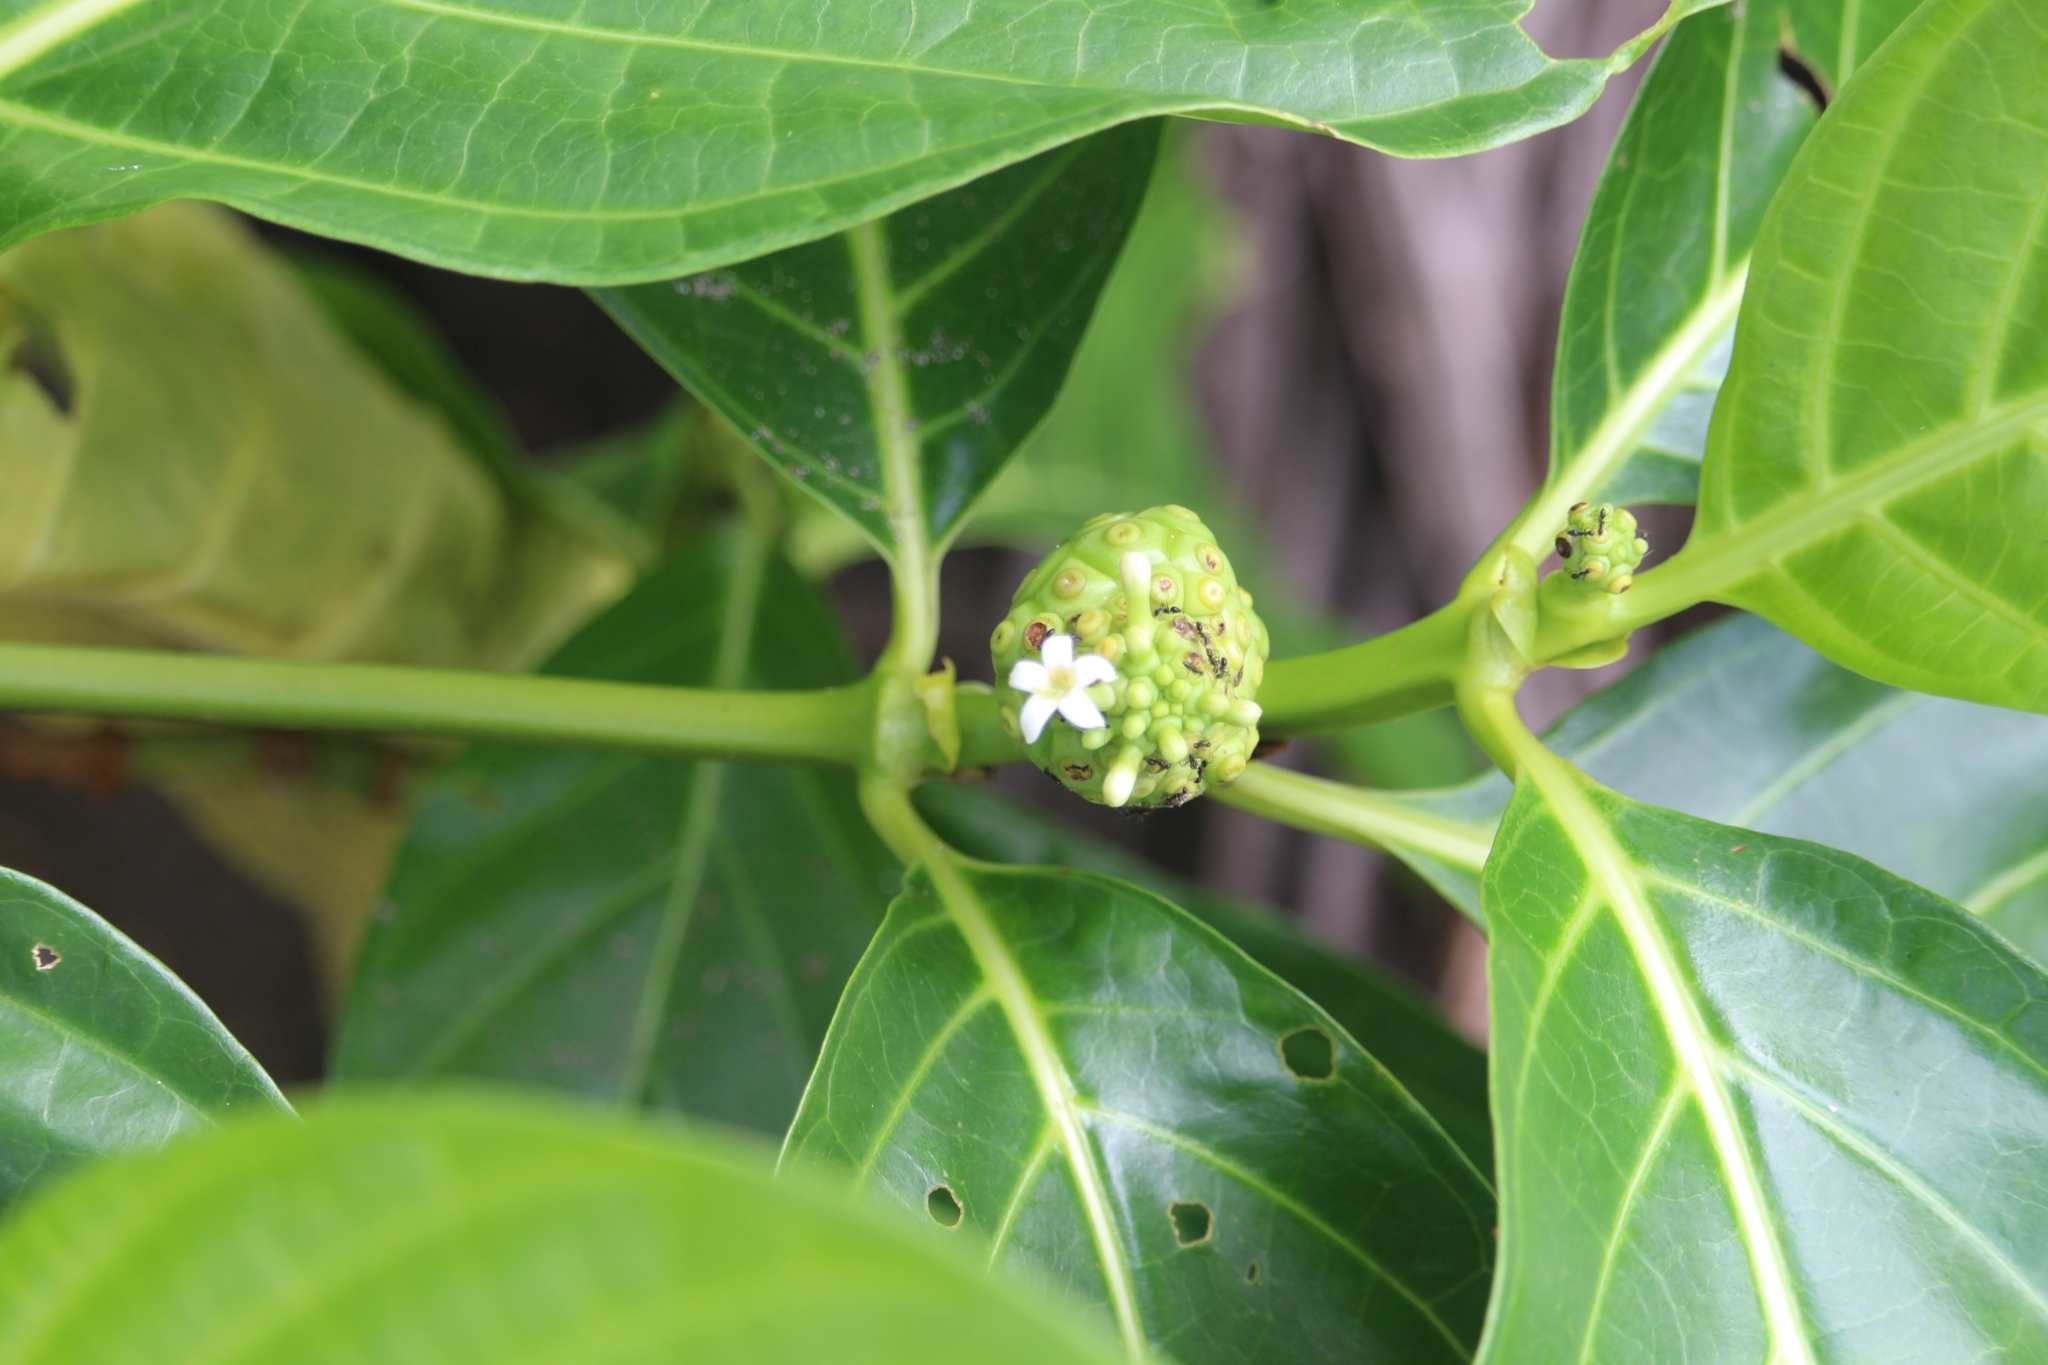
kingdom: Plantae
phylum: Tracheophyta
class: Magnoliopsida
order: Gentianales
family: Rubiaceae
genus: Morinda
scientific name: Morinda citrifolia
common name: Indian-mulberry
